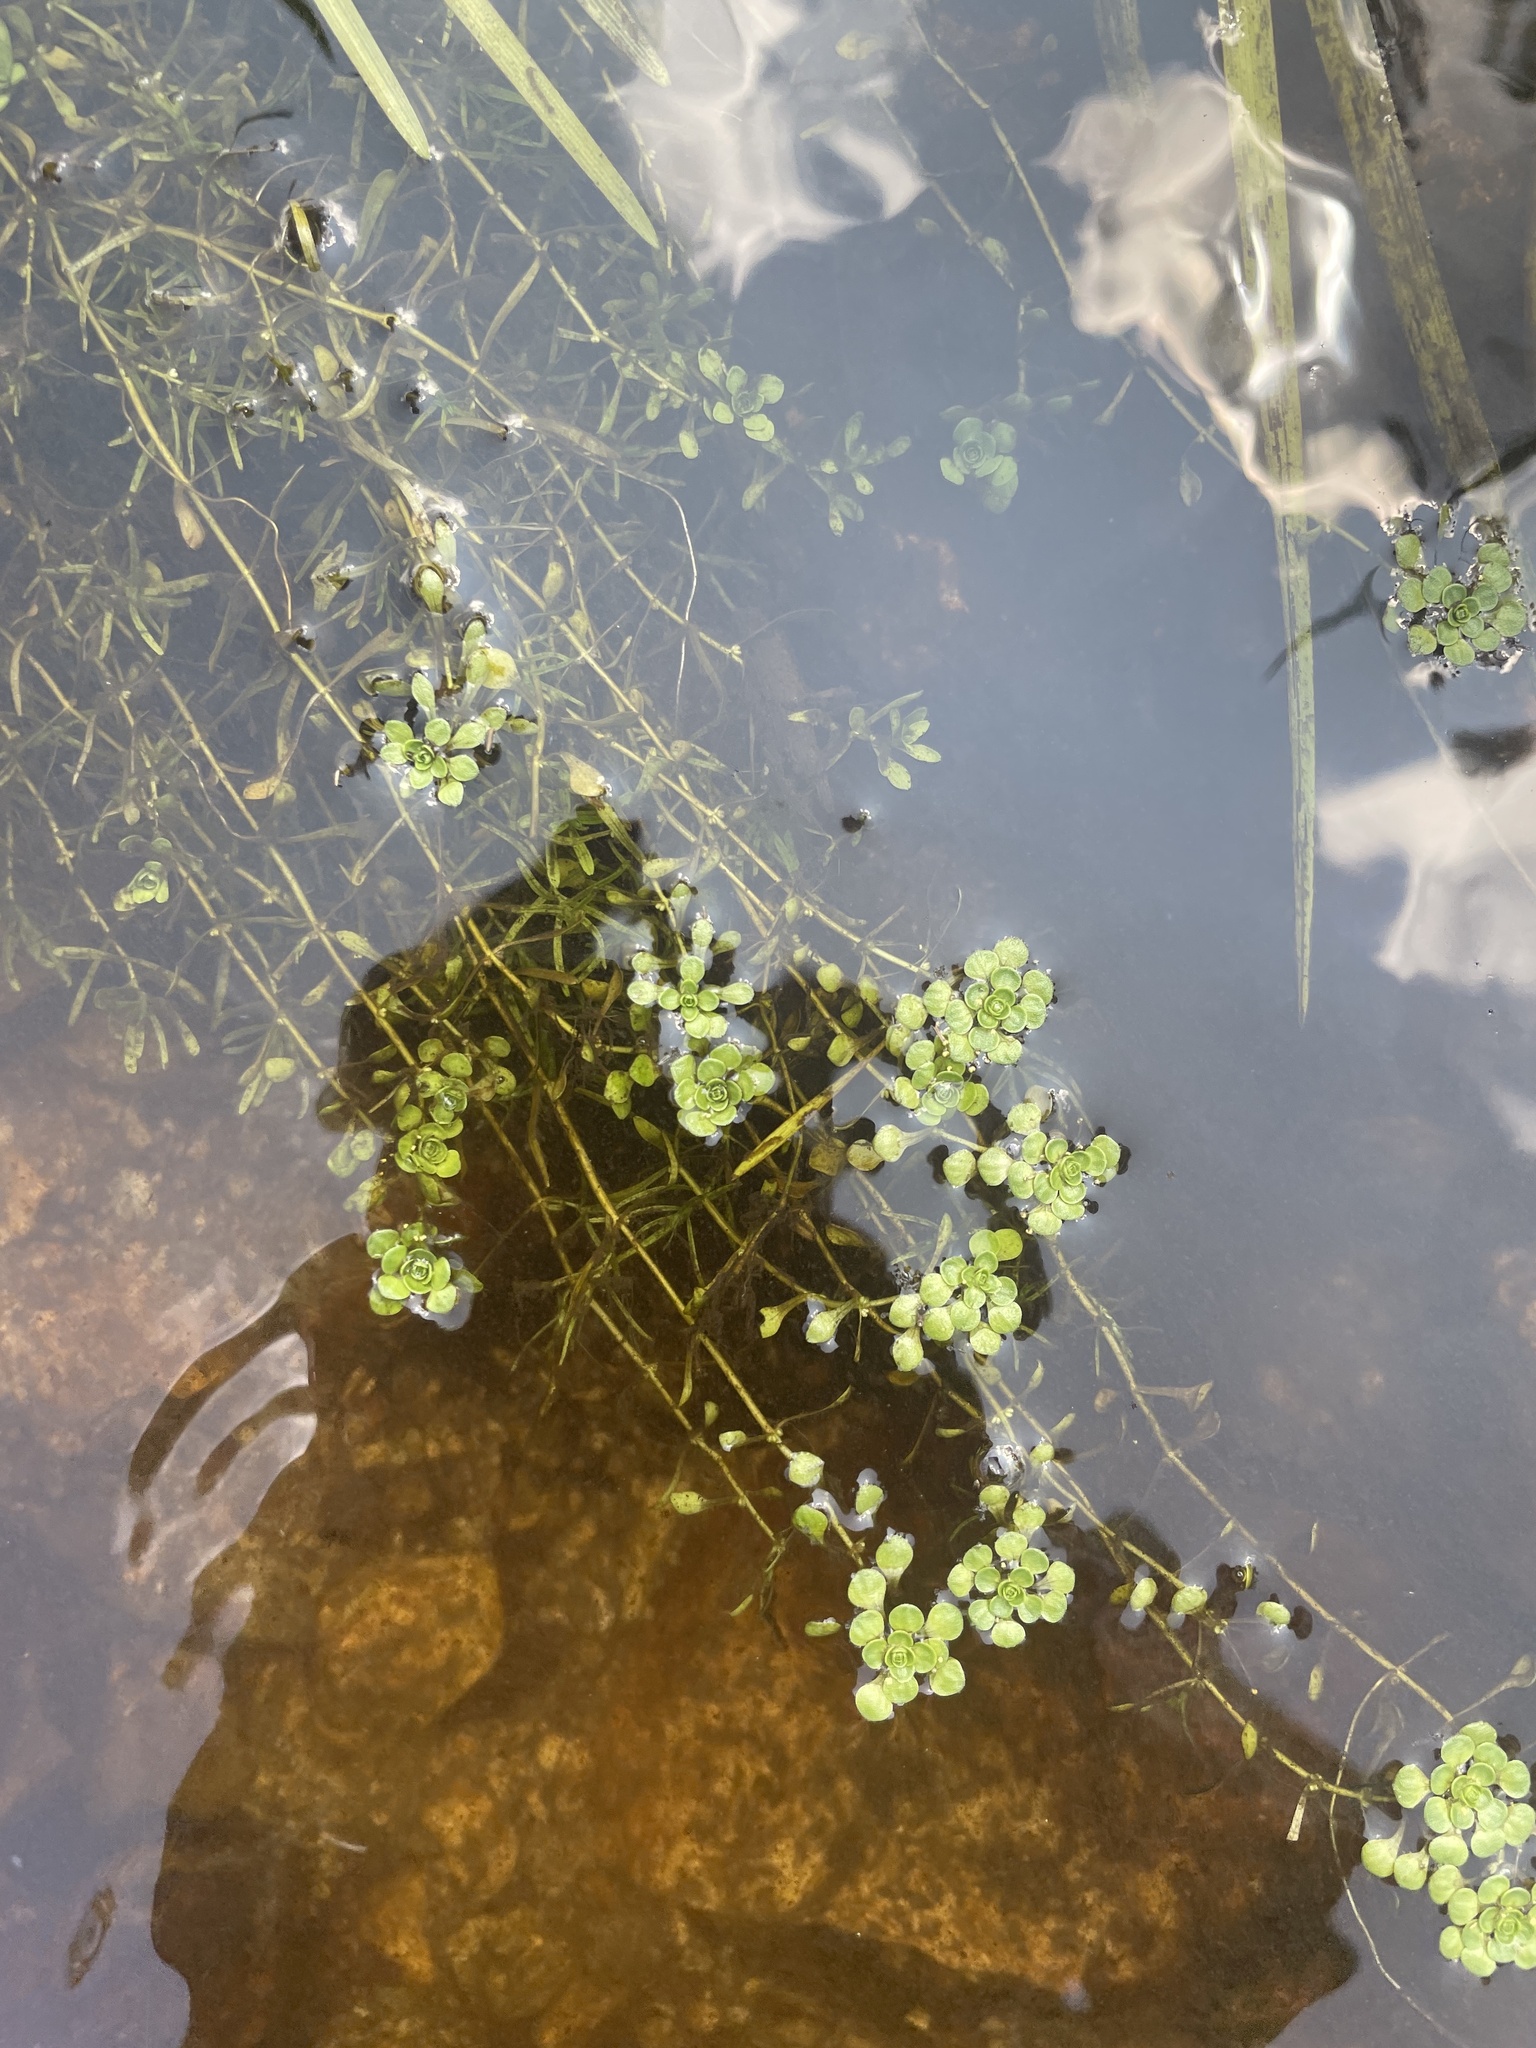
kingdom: Plantae
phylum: Tracheophyta
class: Magnoliopsida
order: Lamiales
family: Plantaginaceae
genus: Callitriche
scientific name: Callitriche heterophylla
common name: Two-headed water-starwort
